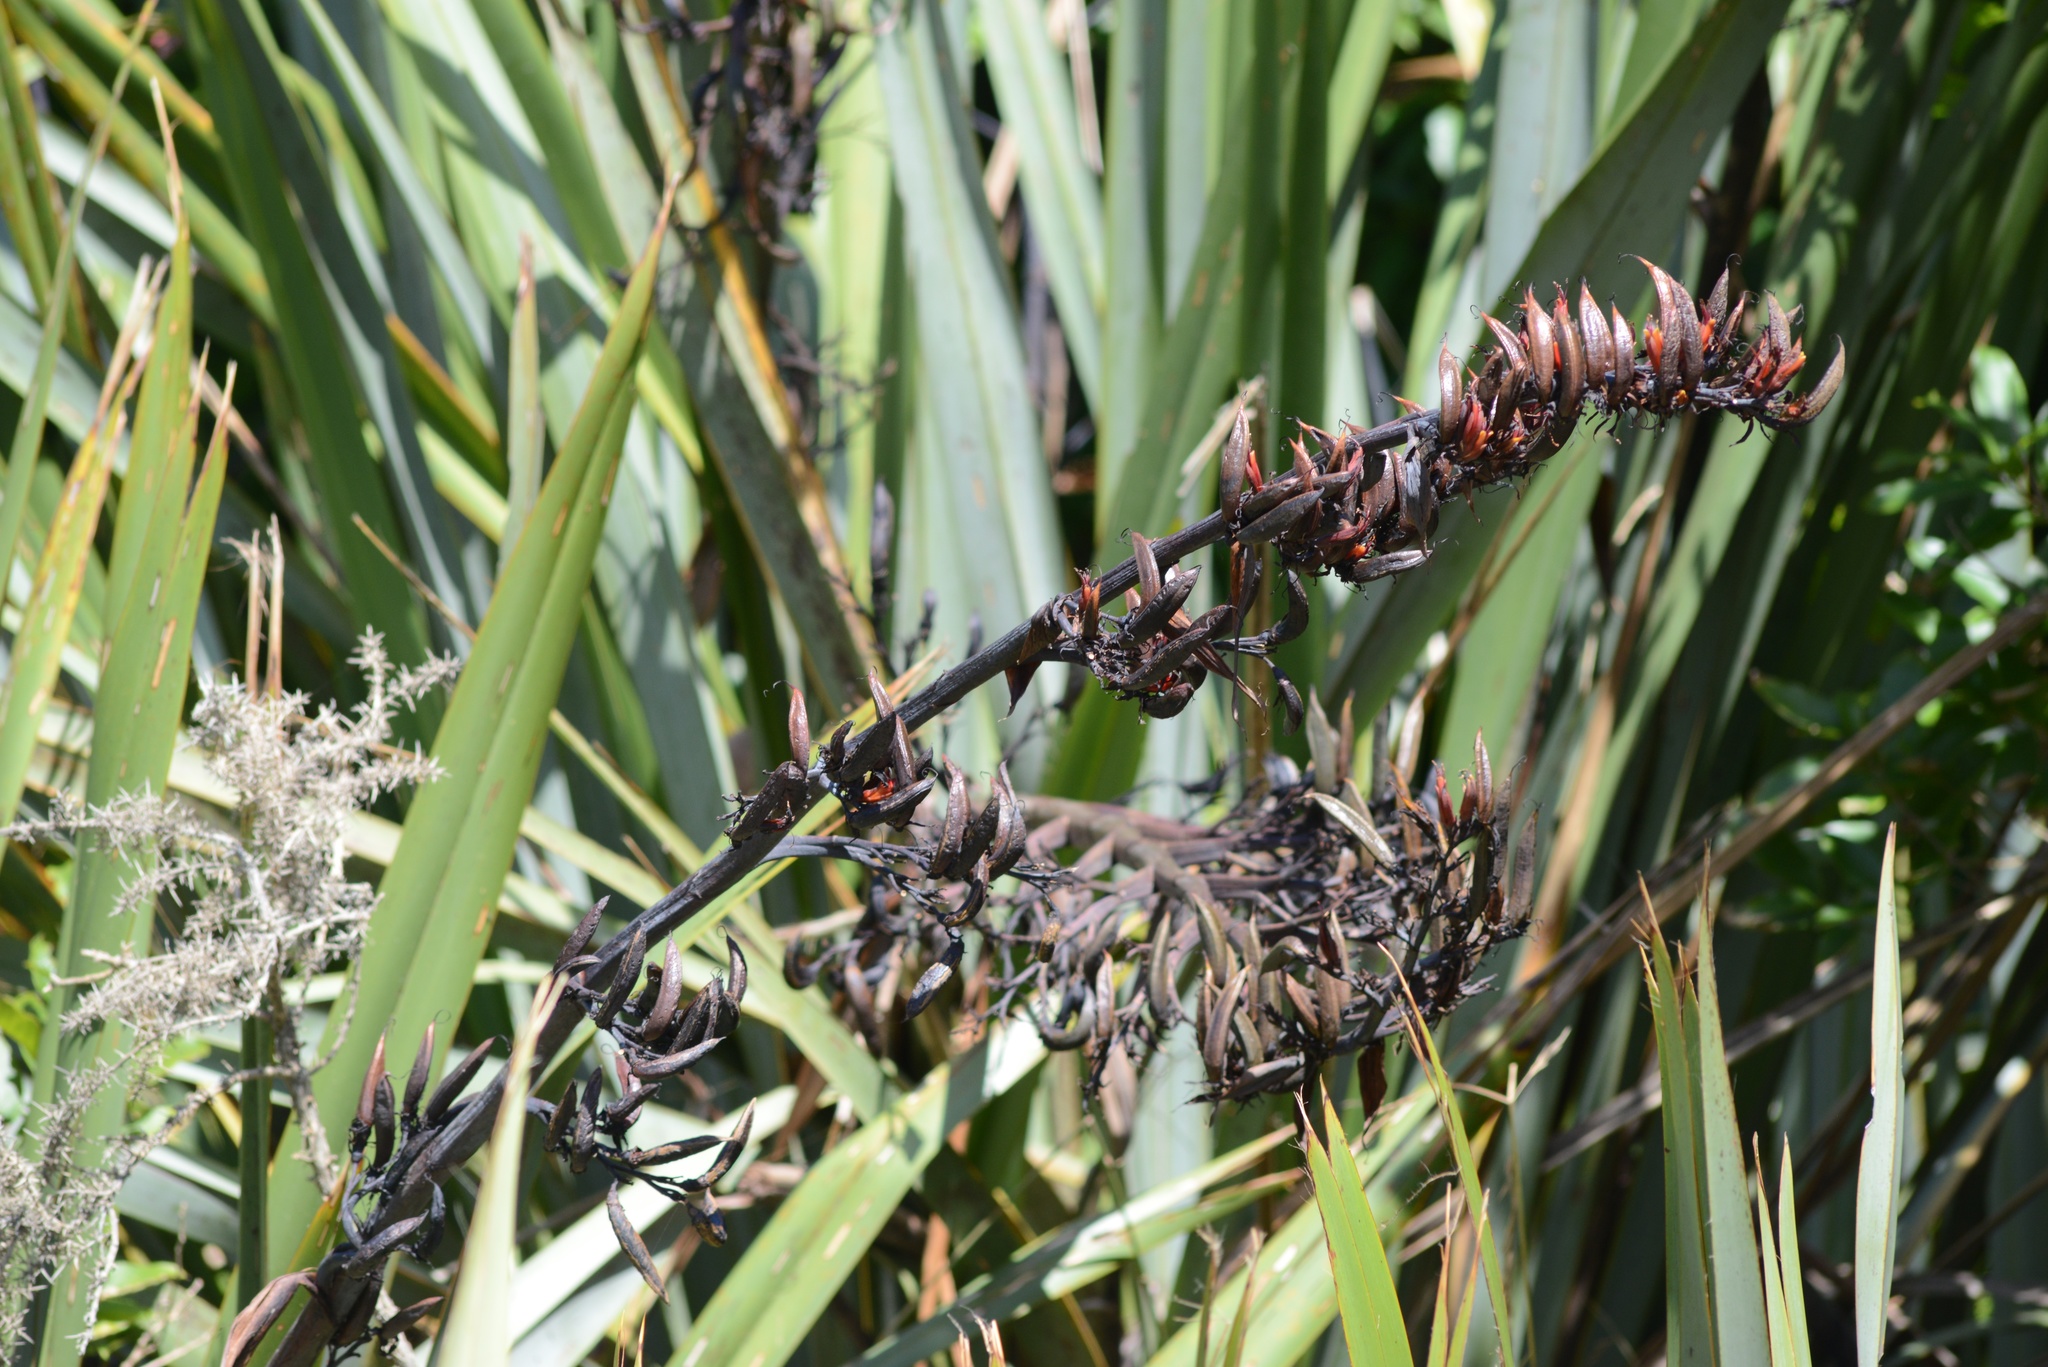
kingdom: Plantae
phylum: Tracheophyta
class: Liliopsida
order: Asparagales
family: Asphodelaceae
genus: Phormium
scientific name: Phormium tenax
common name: New zealand flax
